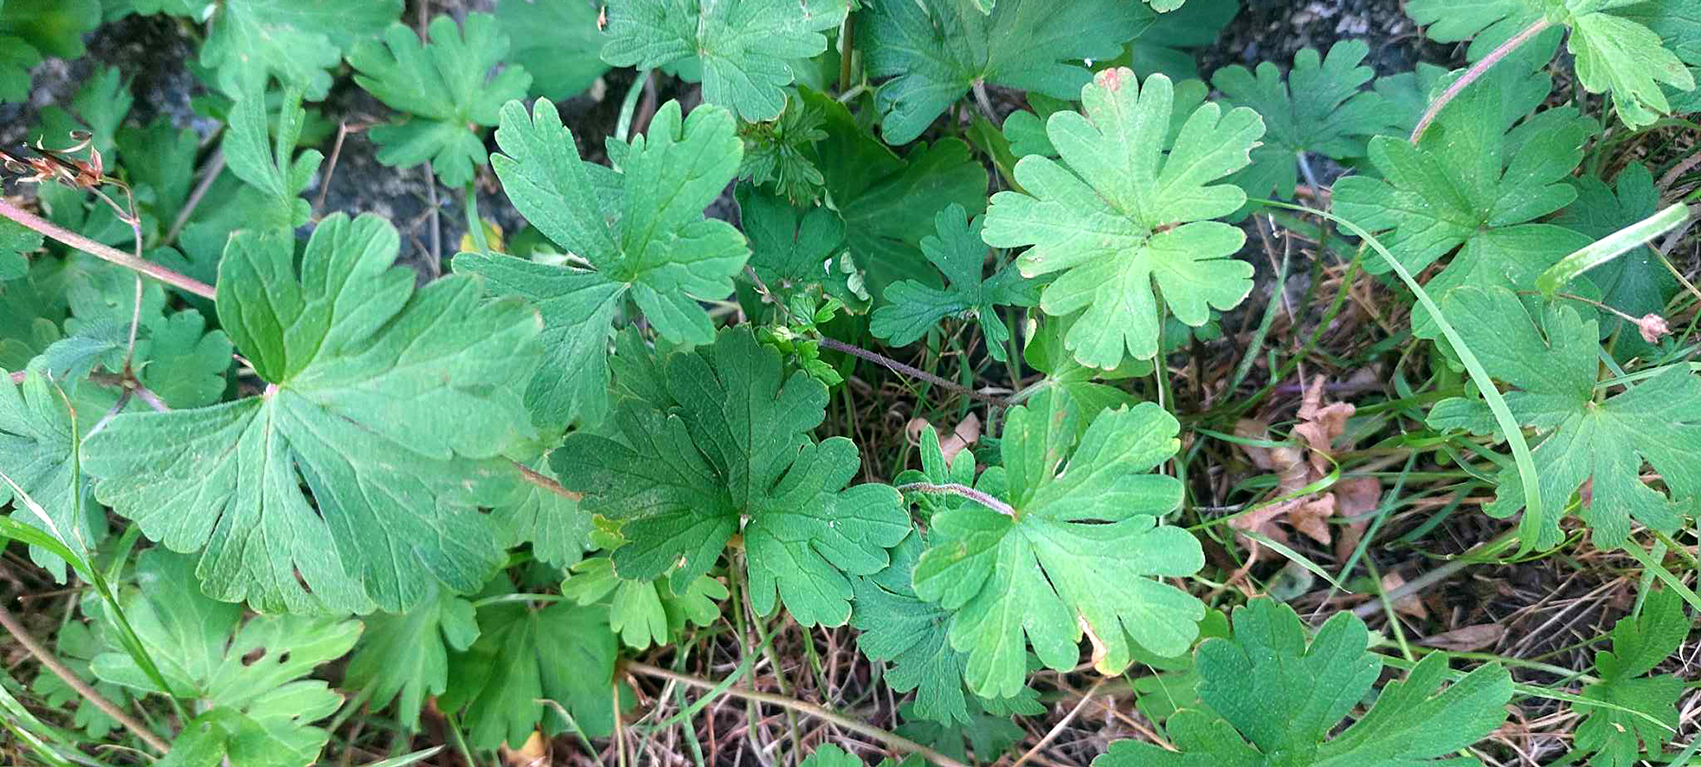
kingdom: Plantae
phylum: Tracheophyta
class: Magnoliopsida
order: Geraniales
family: Geraniaceae
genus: Geranium
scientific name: Geranium homeanum
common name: Australasian geranium
